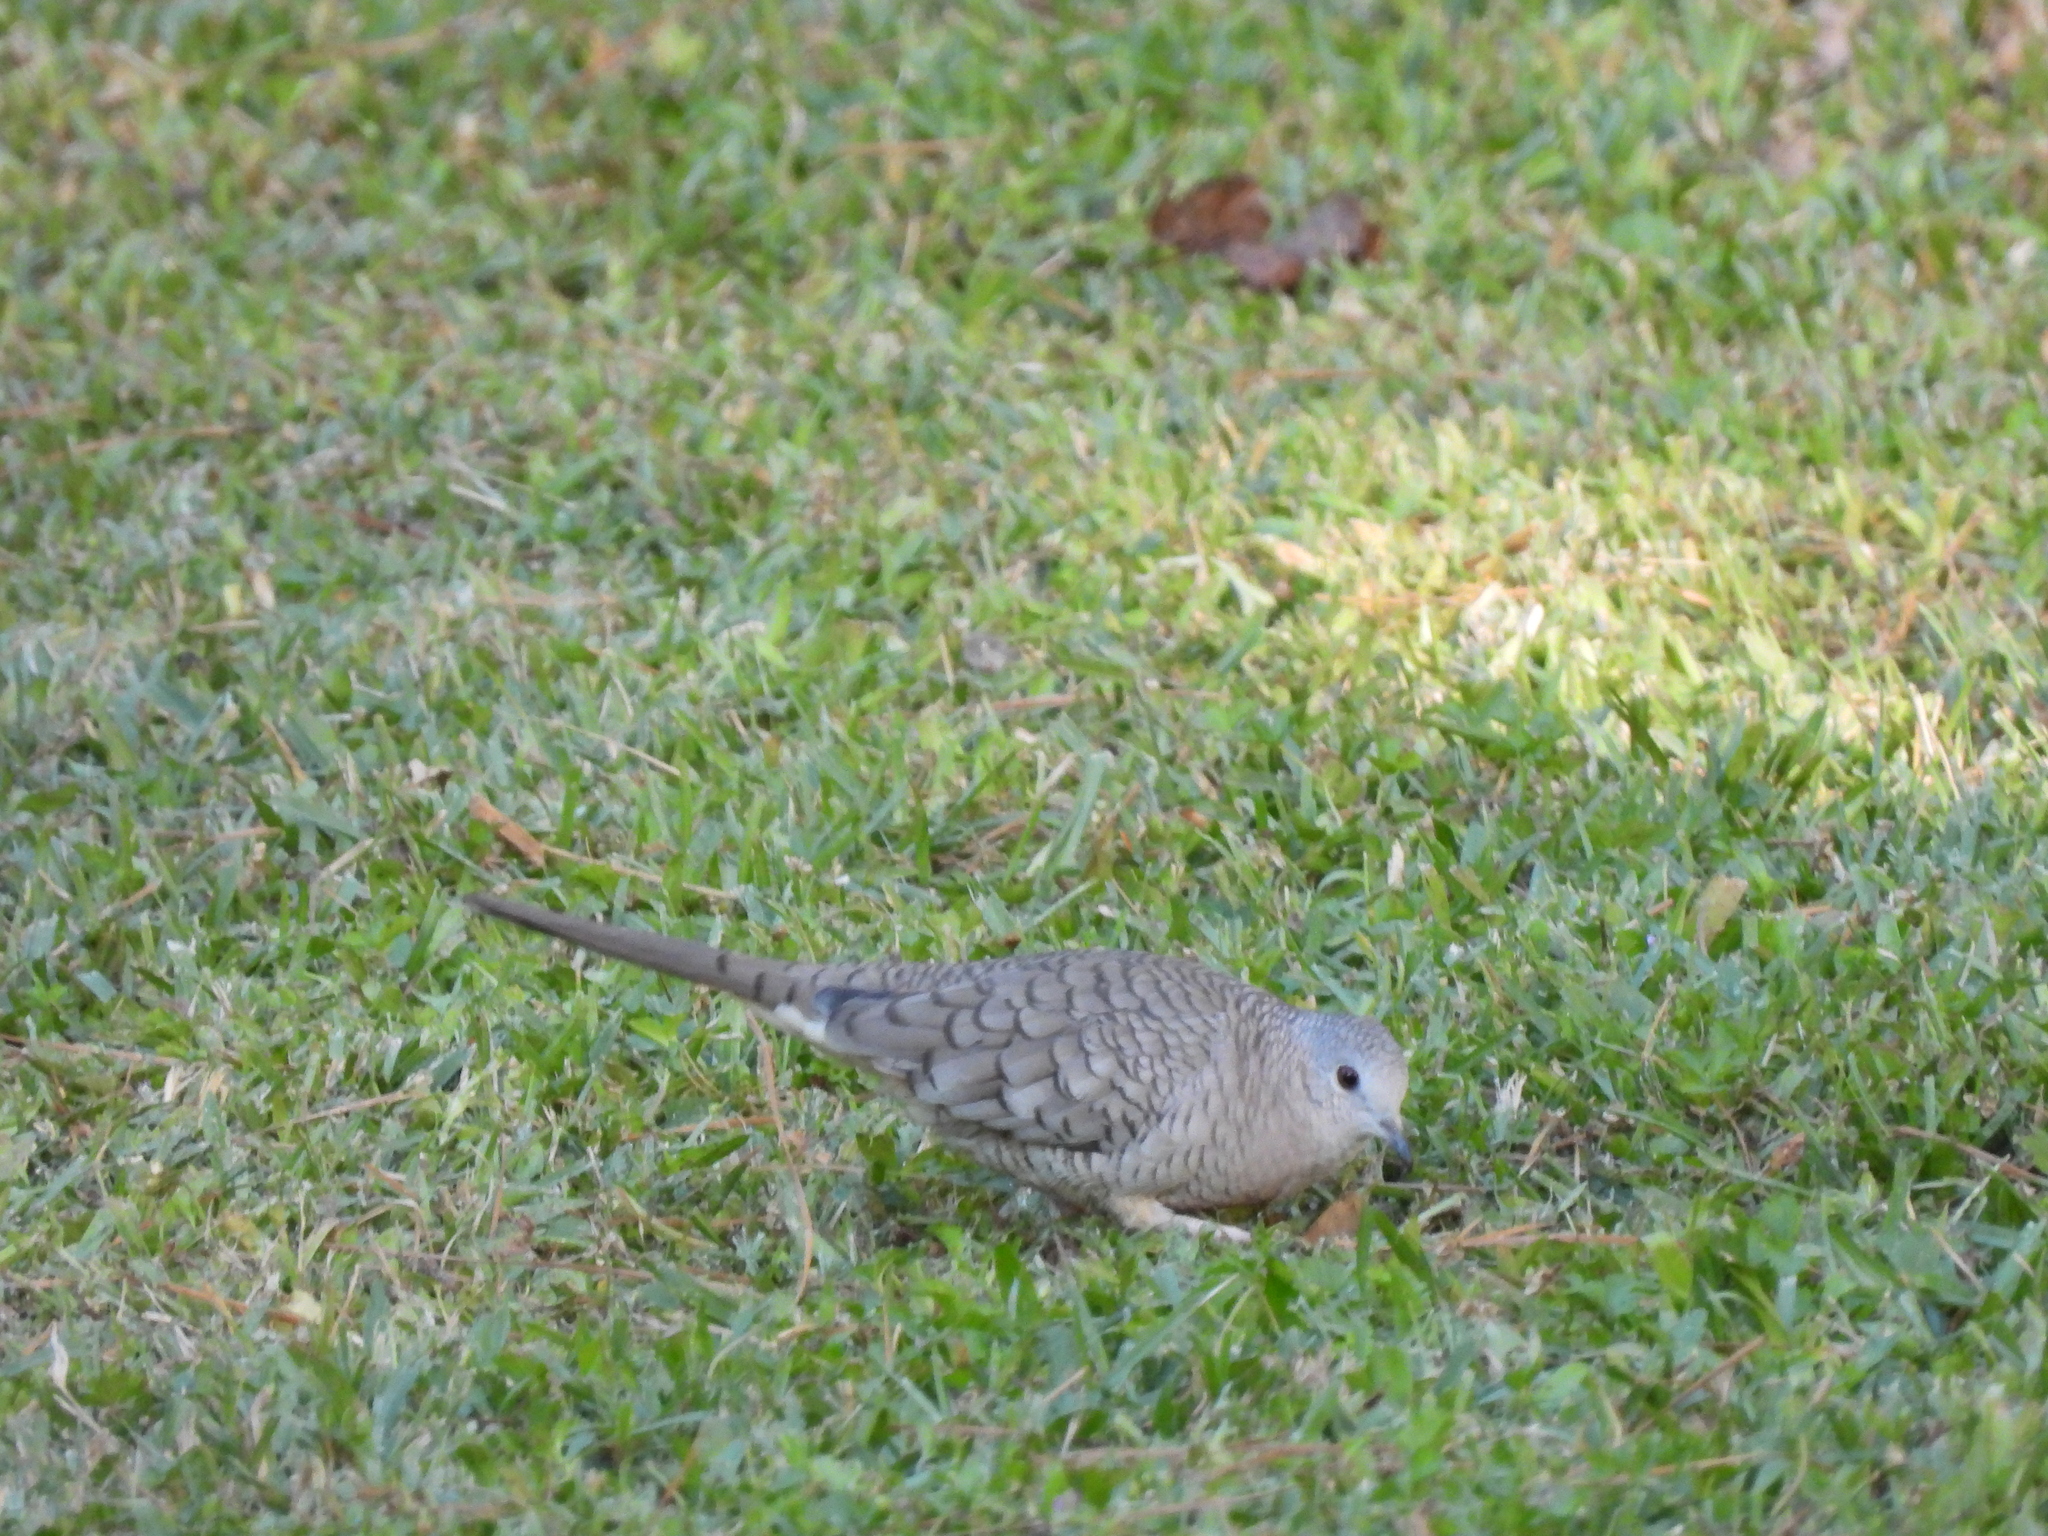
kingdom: Animalia
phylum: Chordata
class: Aves
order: Columbiformes
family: Columbidae
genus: Columbina
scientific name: Columbina inca
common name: Inca dove
